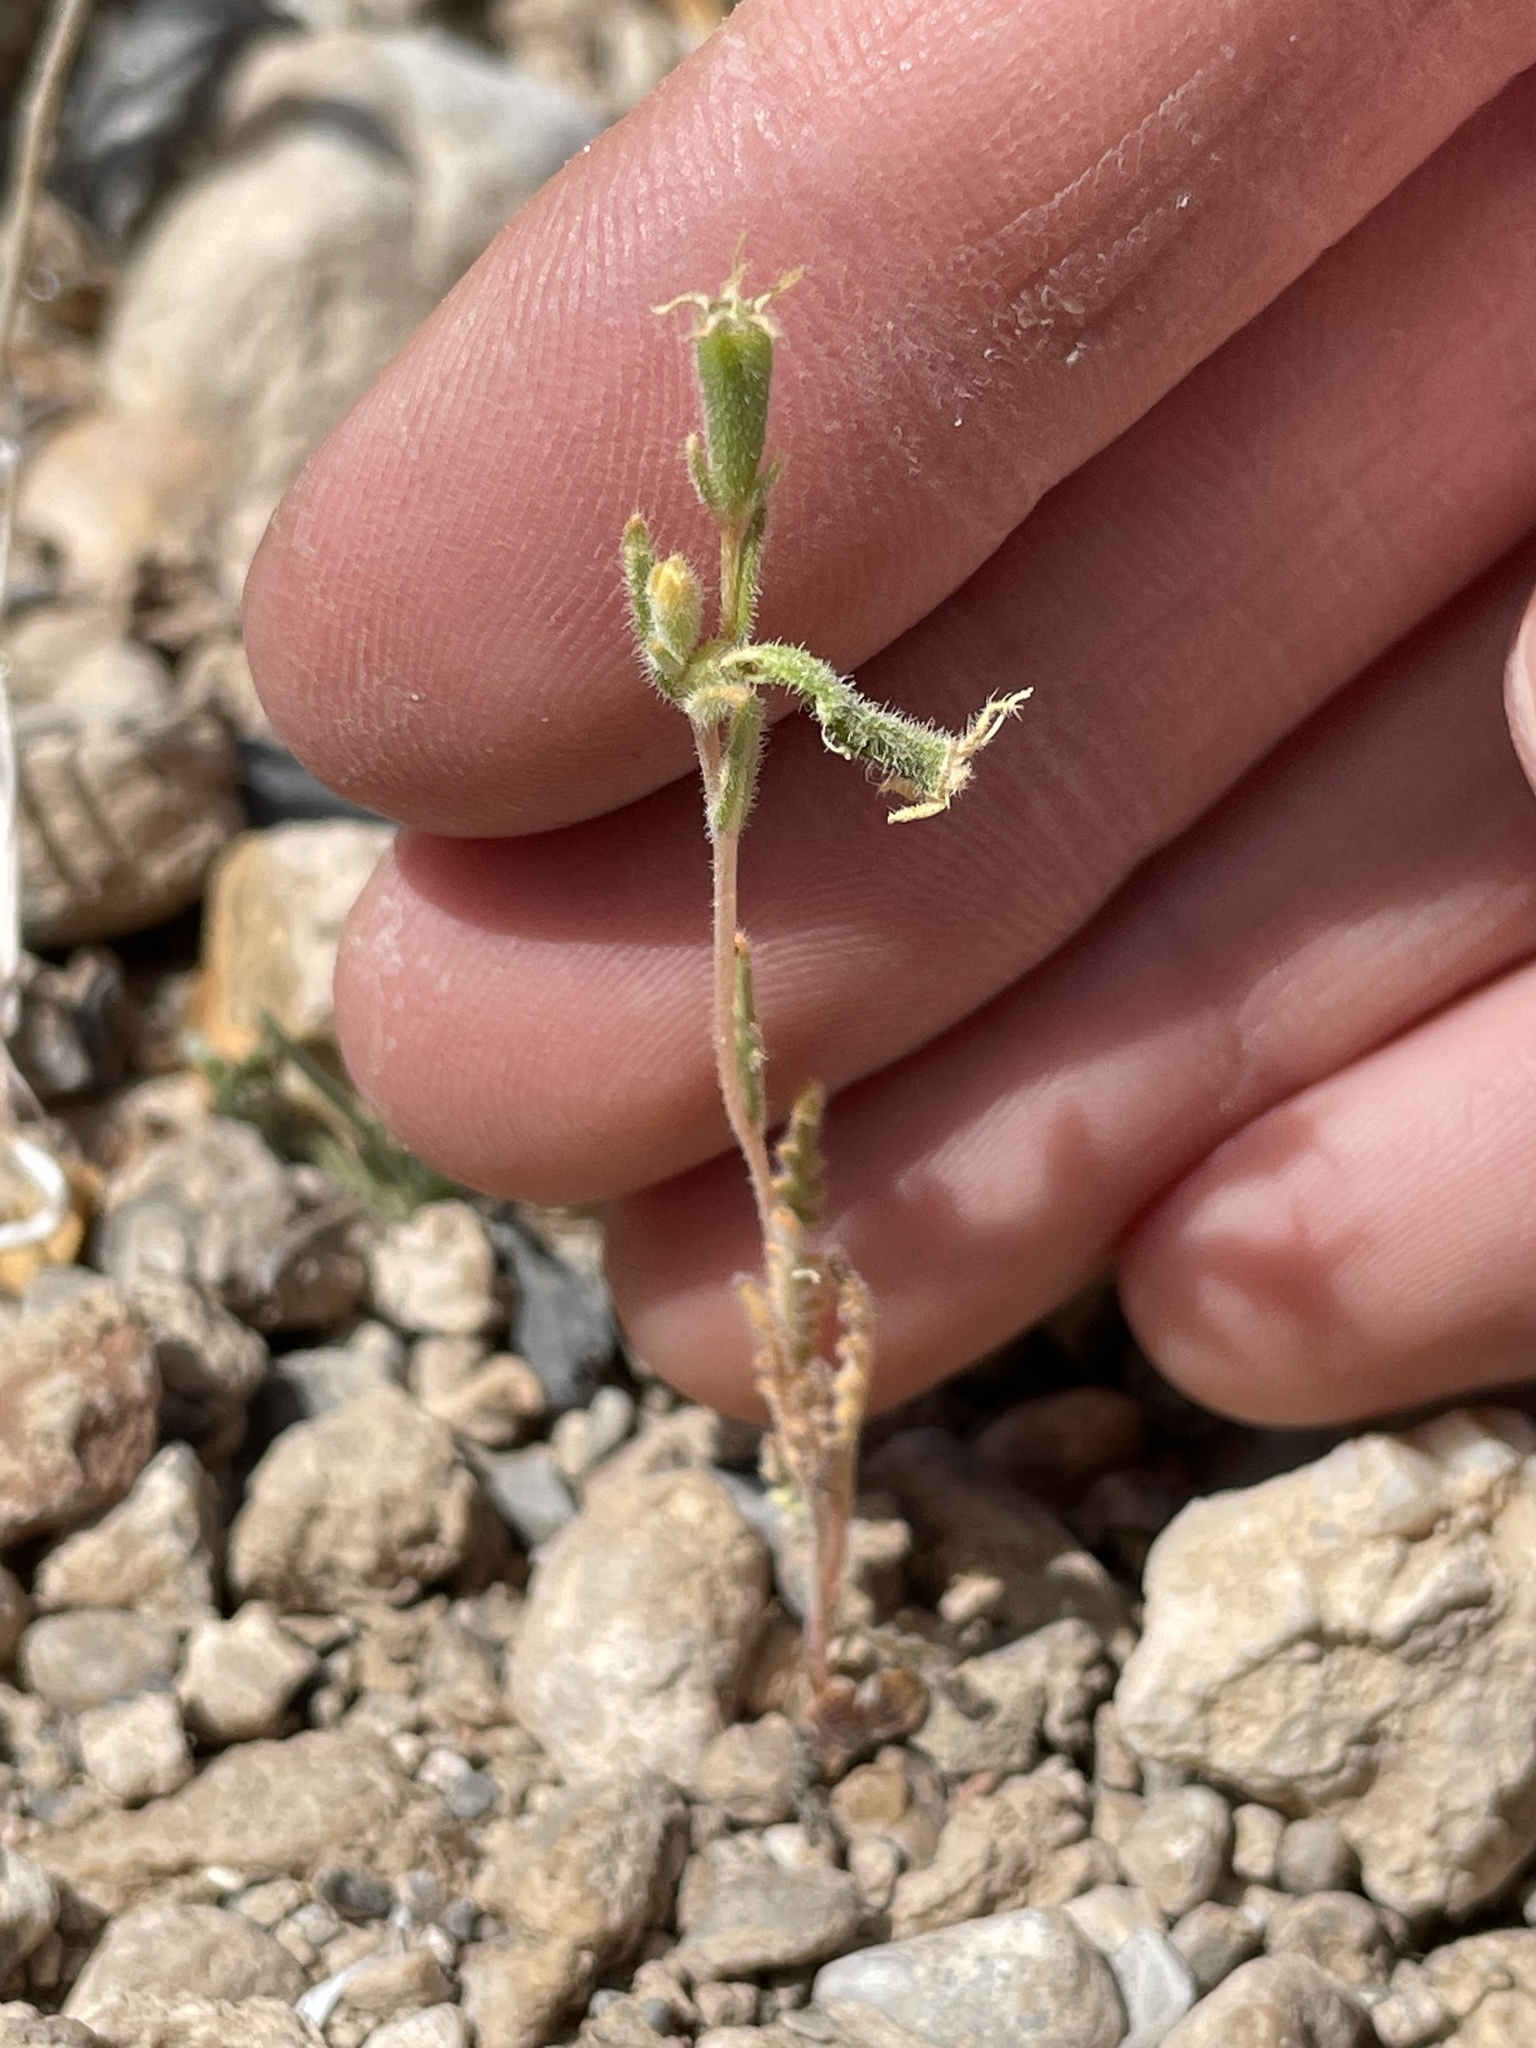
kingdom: Plantae
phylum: Tracheophyta
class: Magnoliopsida
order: Cornales
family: Loasaceae
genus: Mentzelia
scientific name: Mentzelia albicaulis
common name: White-stem blazingstar
